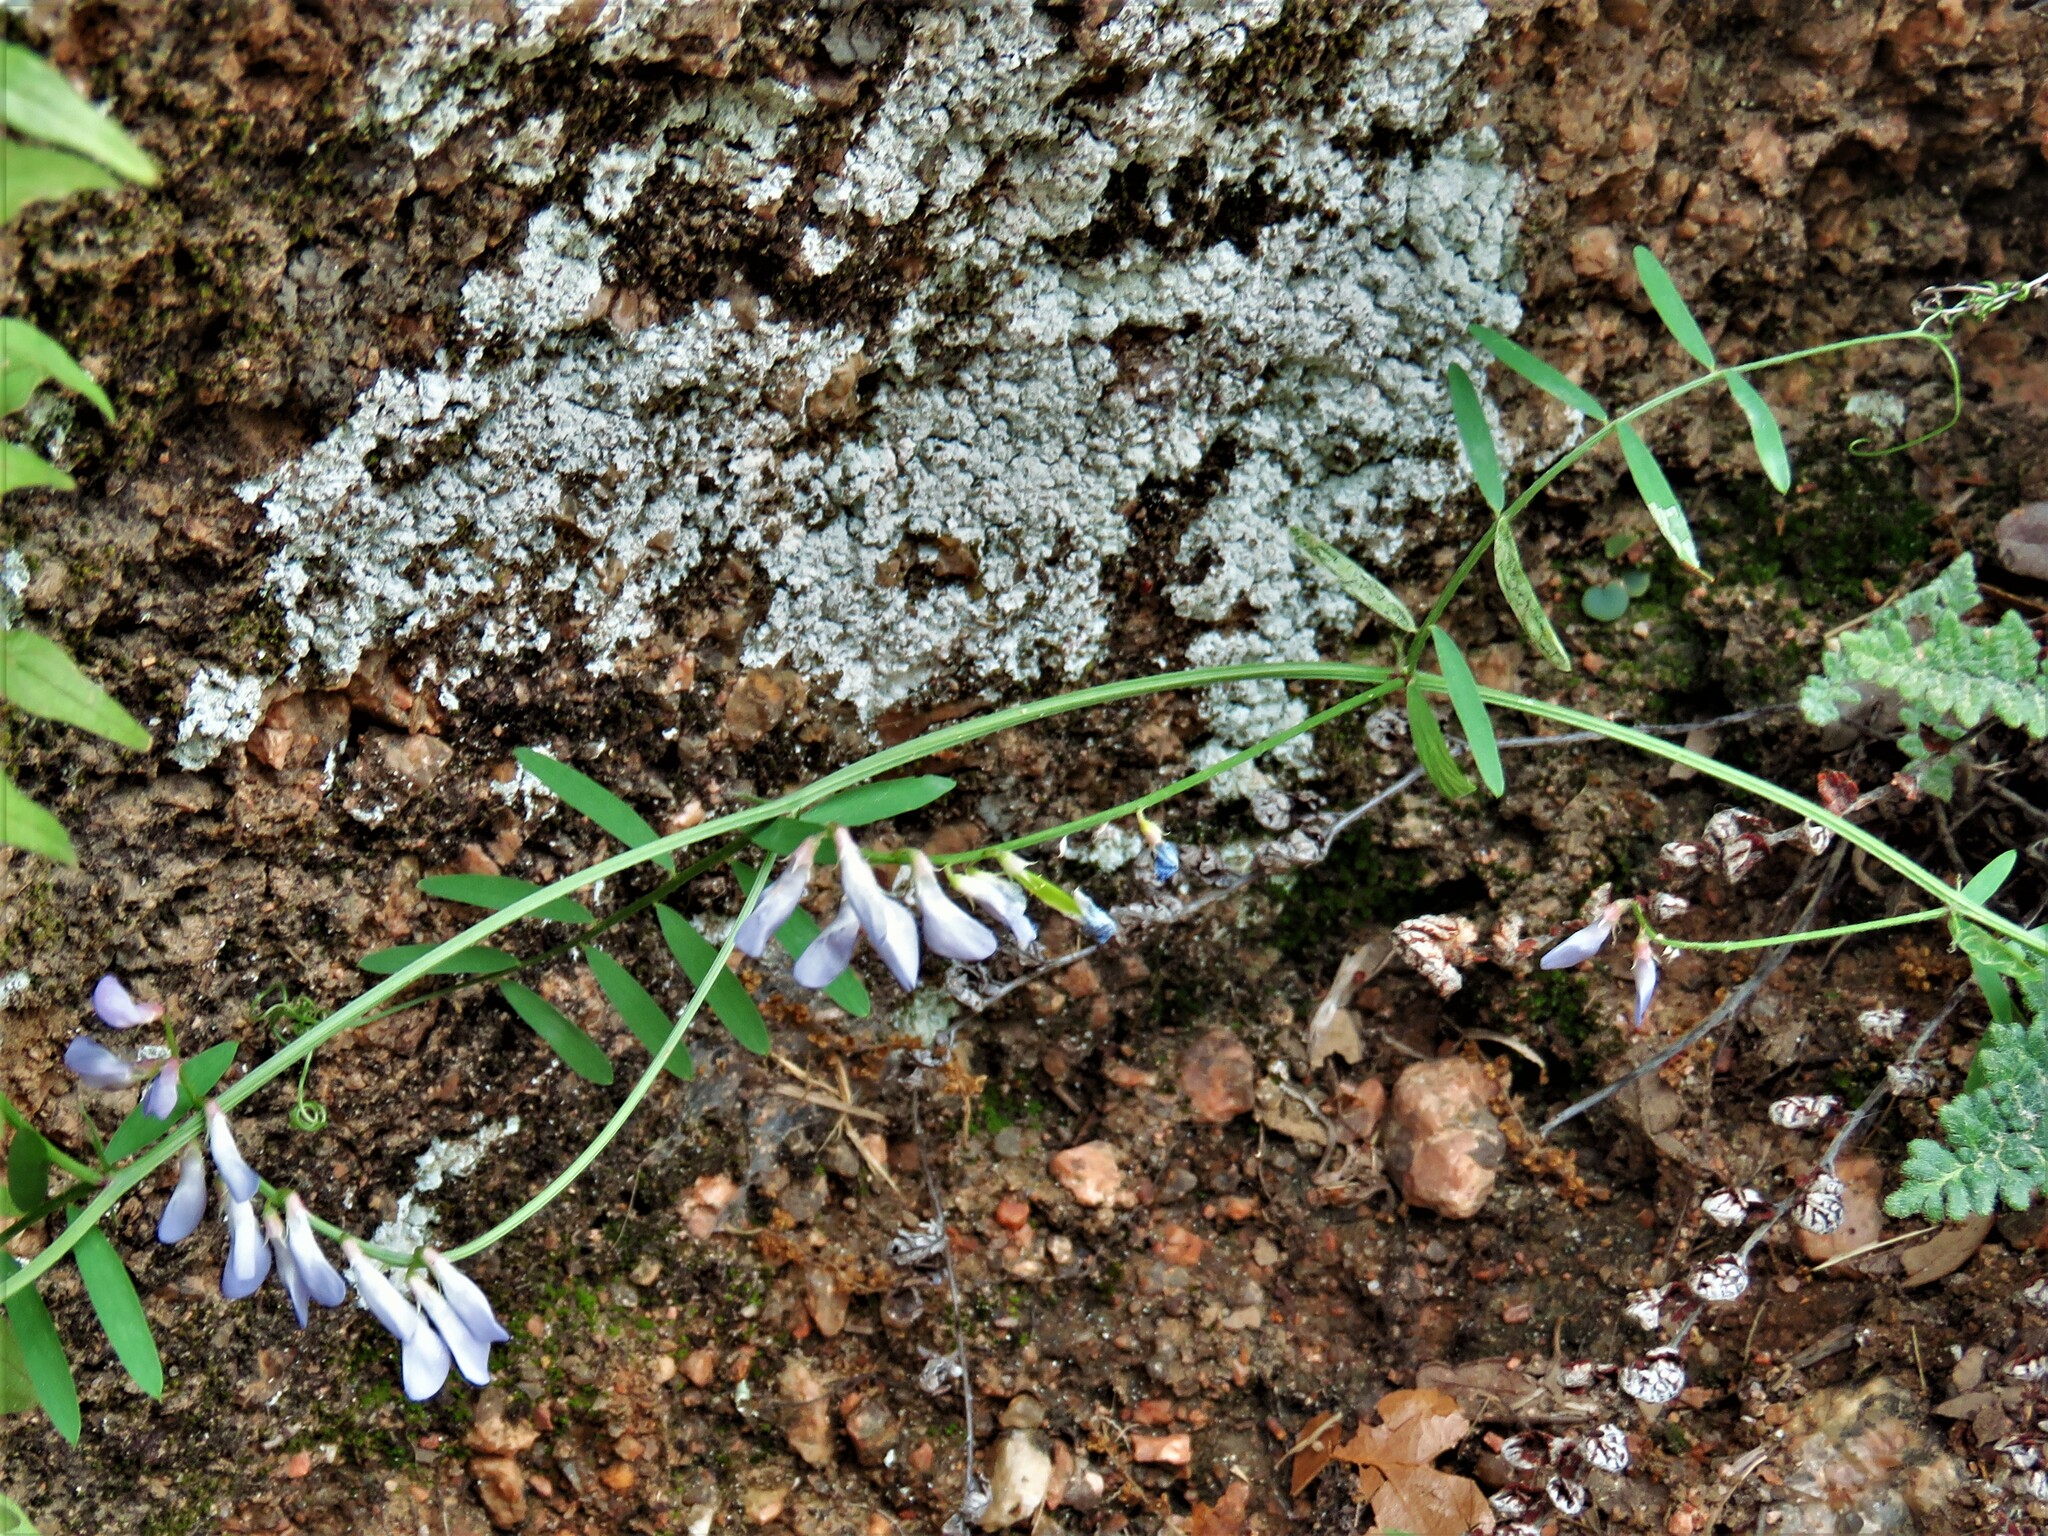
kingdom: Plantae
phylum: Tracheophyta
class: Magnoliopsida
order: Fabales
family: Fabaceae
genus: Vicia
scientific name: Vicia ludoviciana
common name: Louisiana vetch
